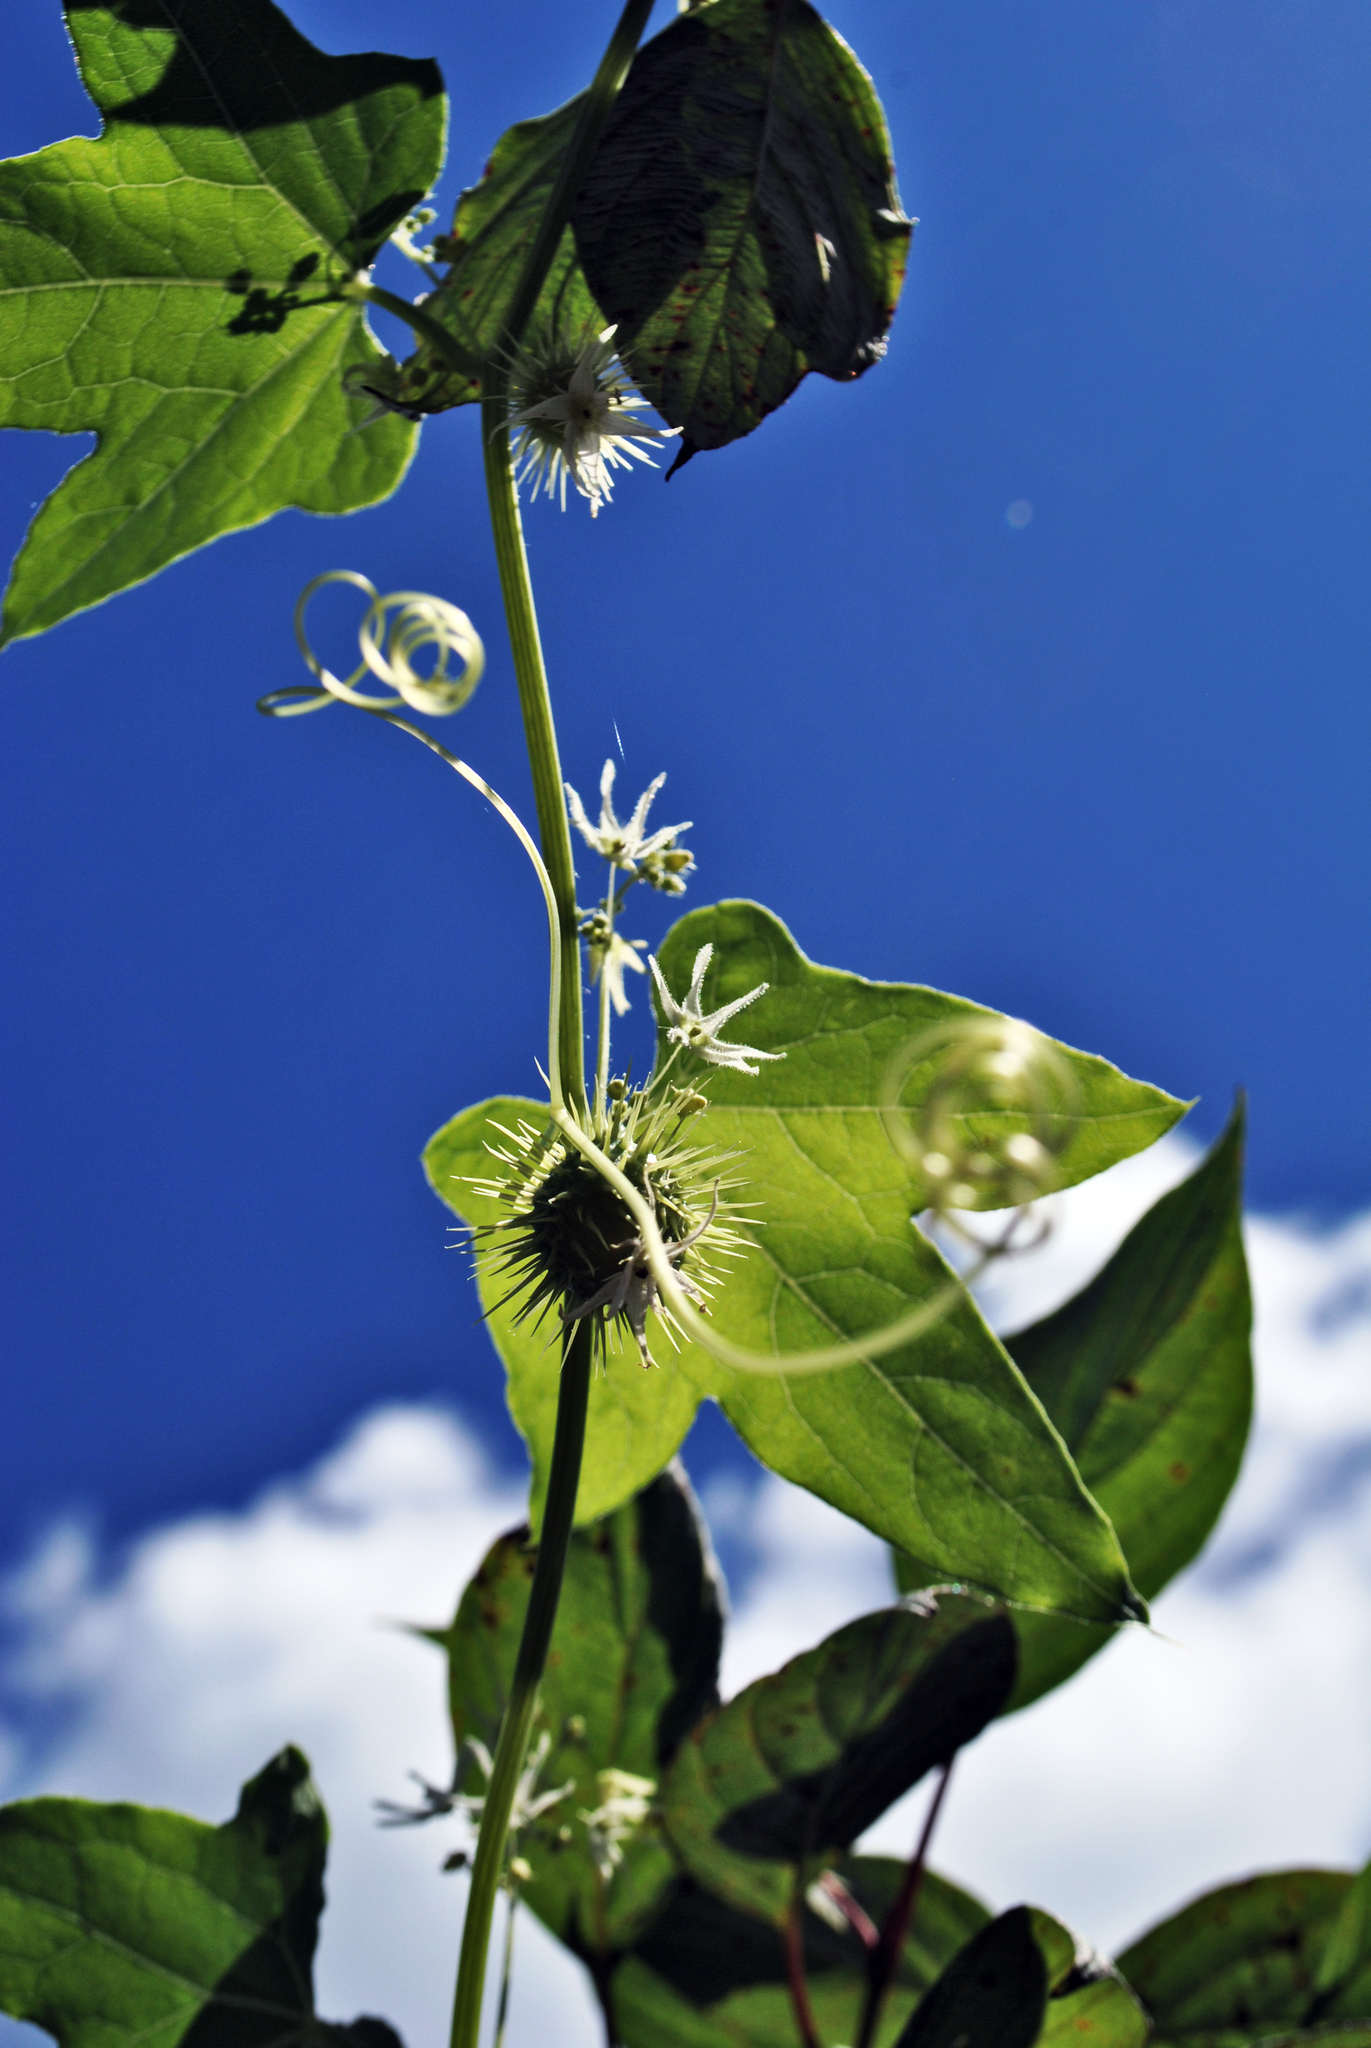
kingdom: Plantae
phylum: Tracheophyta
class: Magnoliopsida
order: Cucurbitales
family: Cucurbitaceae
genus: Echinocystis
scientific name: Echinocystis lobata
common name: Wild cucumber
